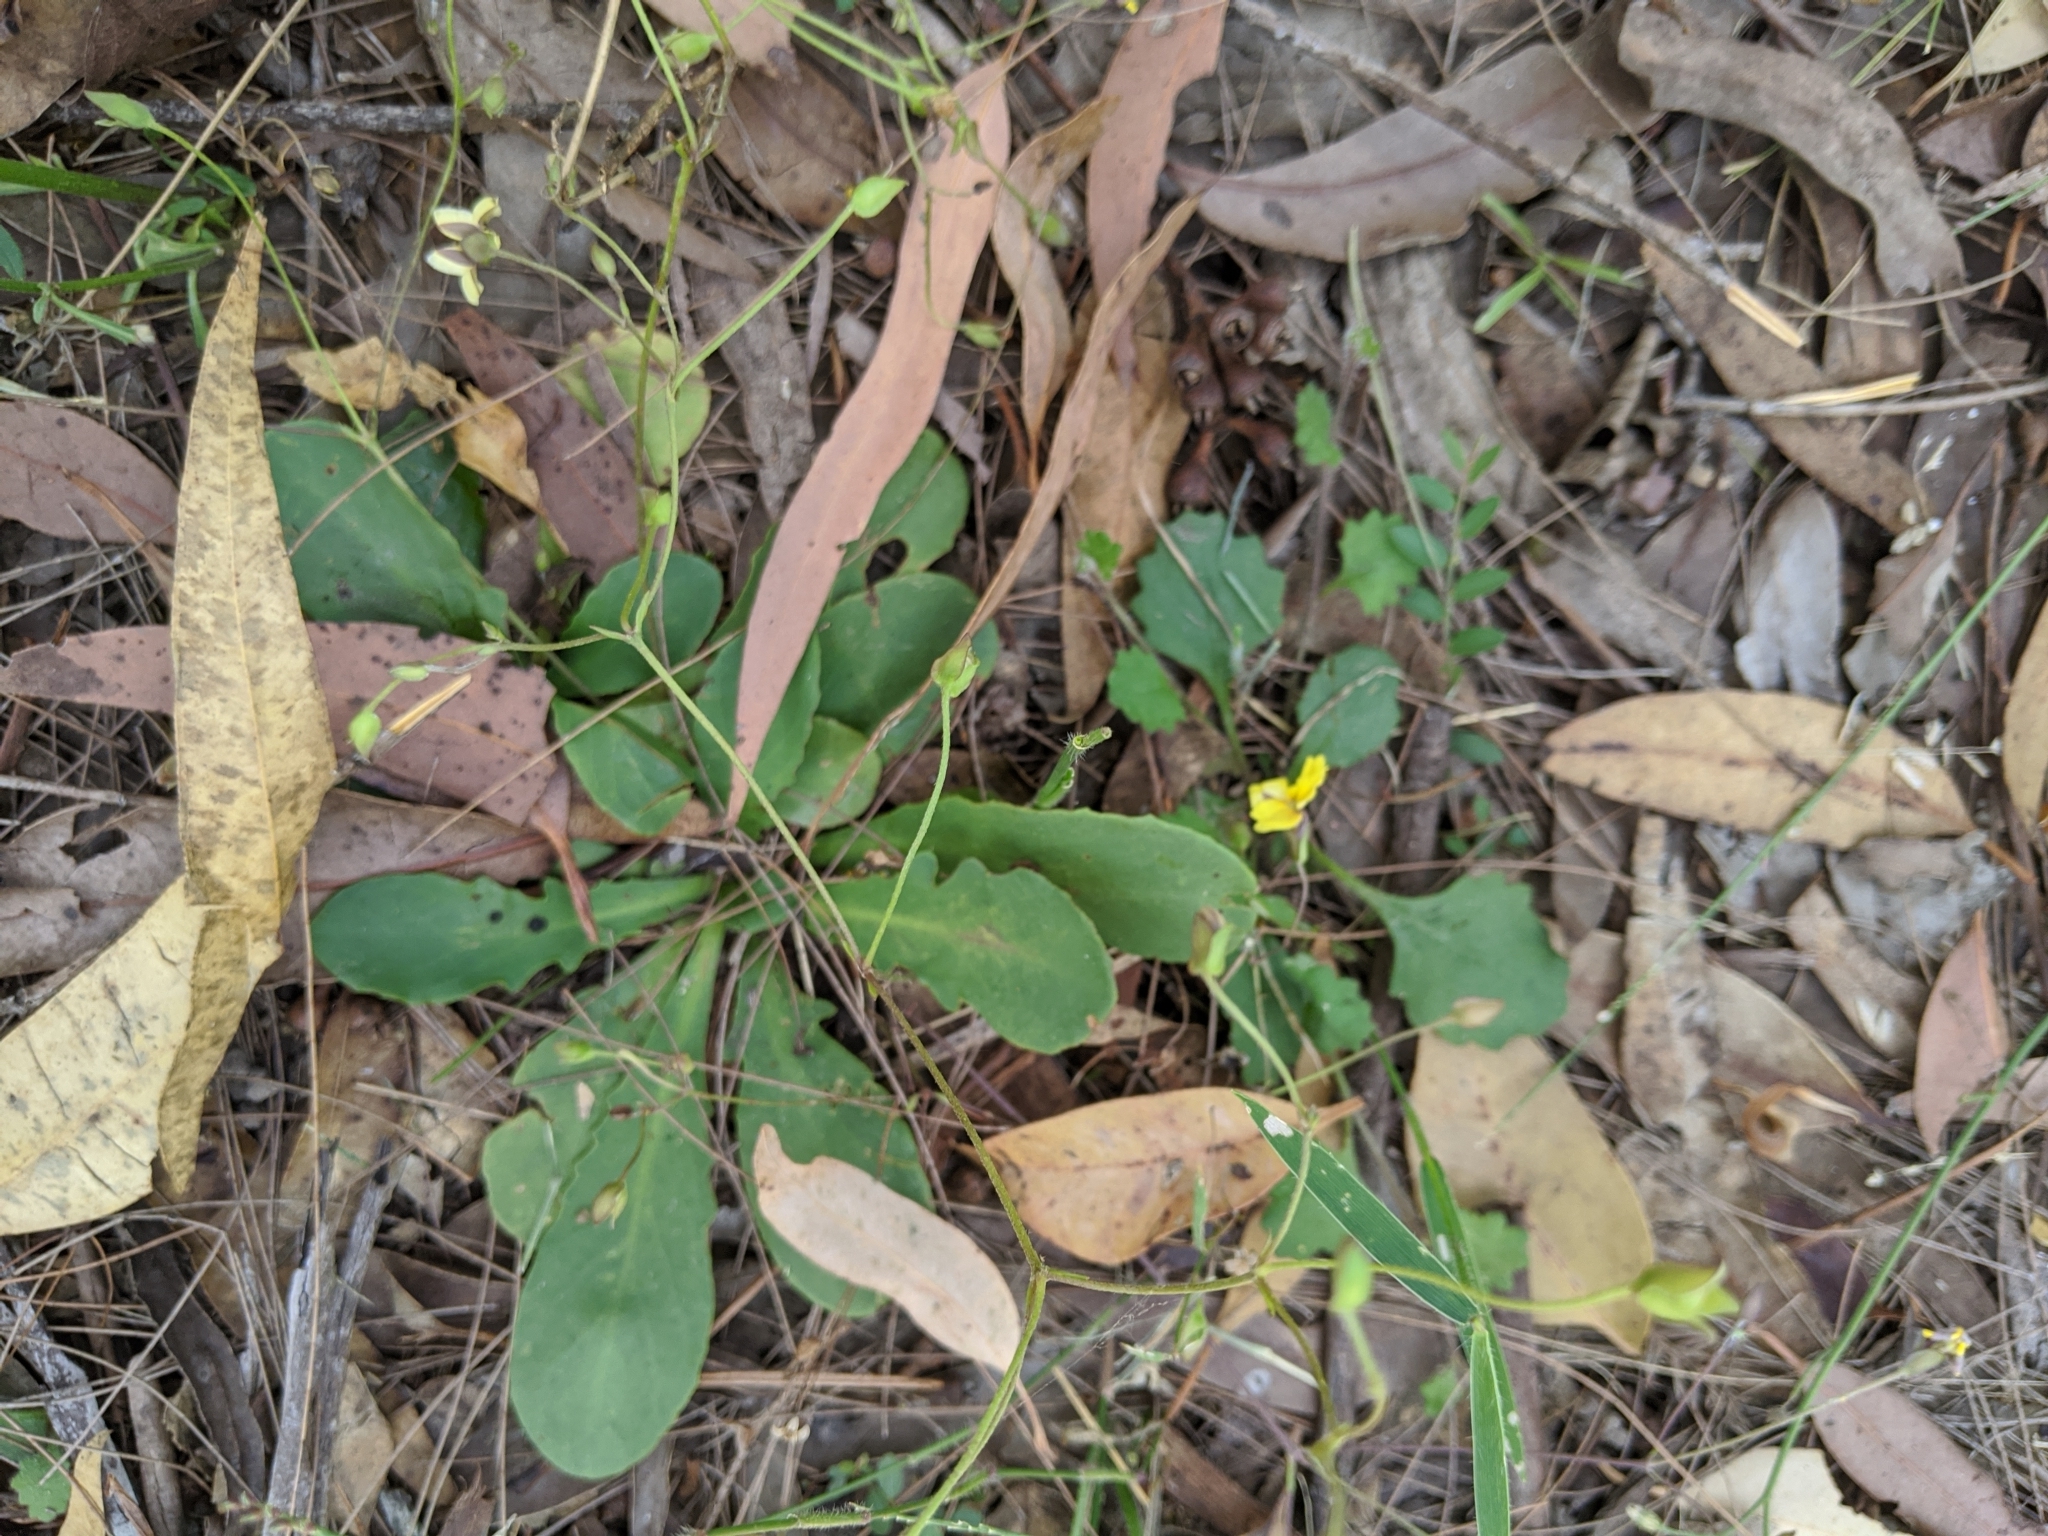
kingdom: Plantae
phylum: Tracheophyta
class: Magnoliopsida
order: Asterales
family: Goodeniaceae
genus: Goodenia
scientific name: Goodenia mystrophylla
